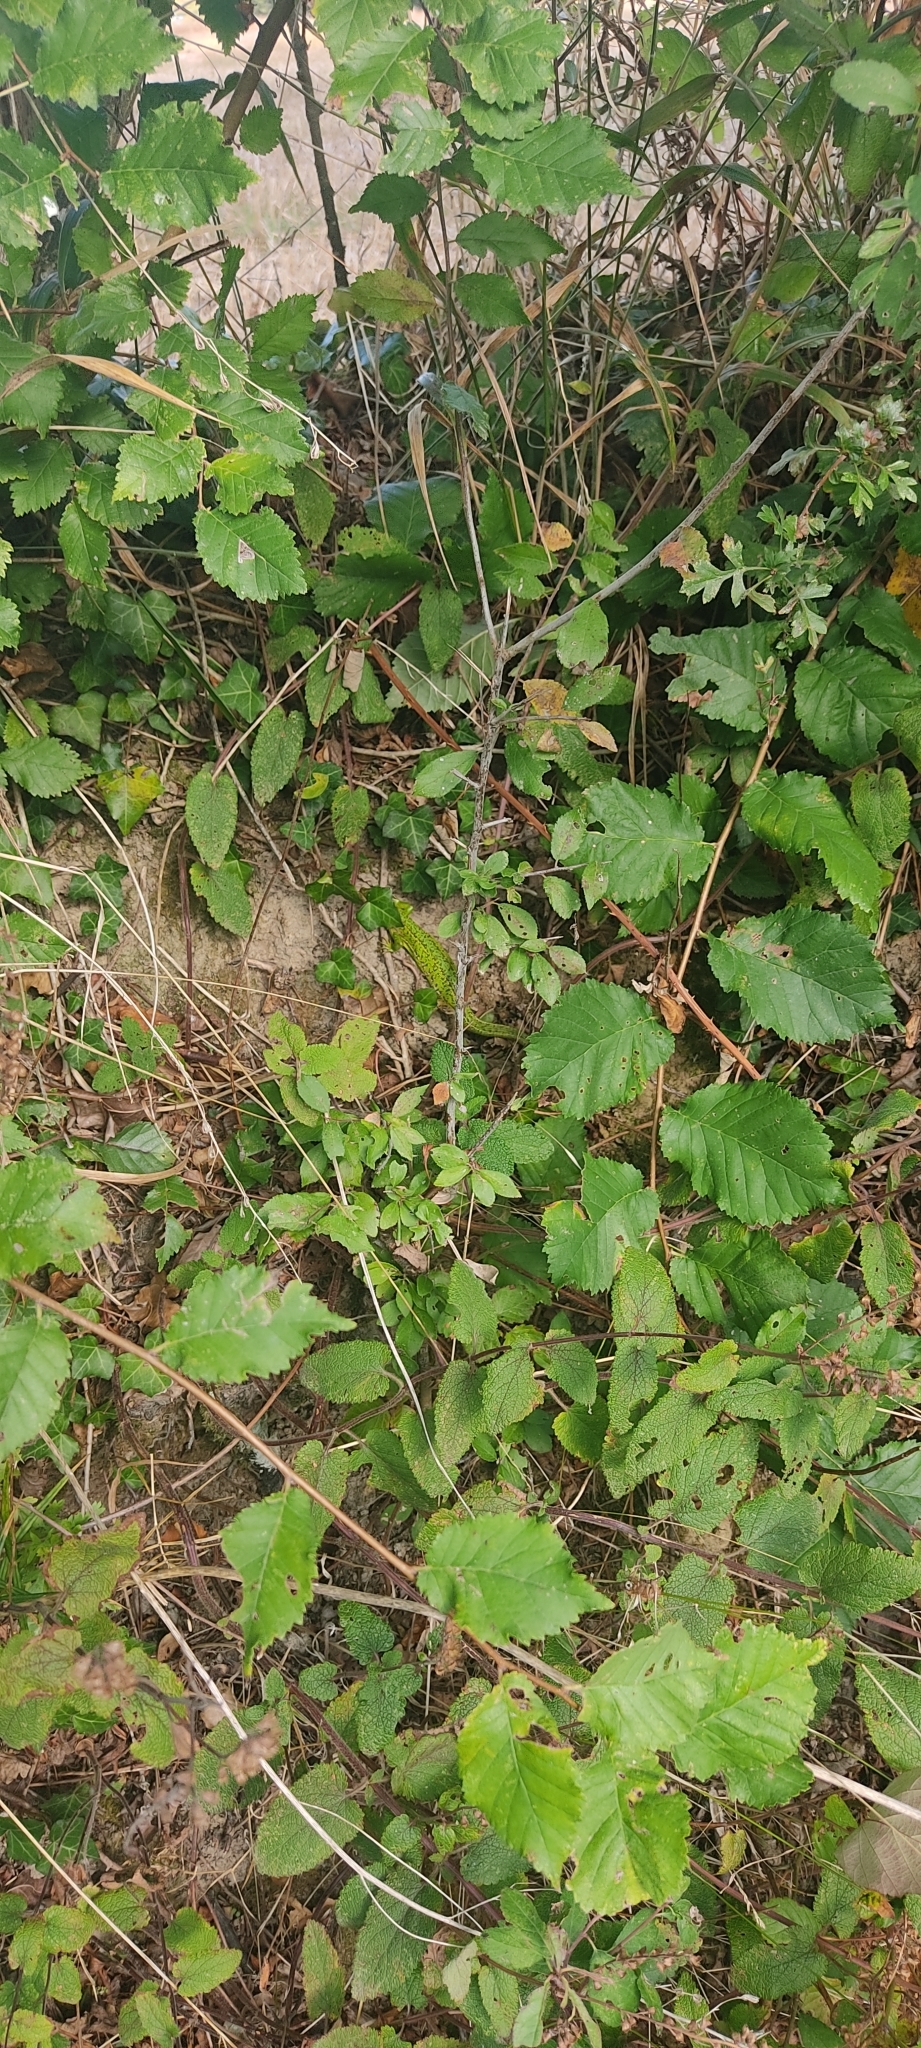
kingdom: Animalia
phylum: Chordata
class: Squamata
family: Lacertidae
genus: Lacerta
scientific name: Lacerta bilineata
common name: Western green lizard
